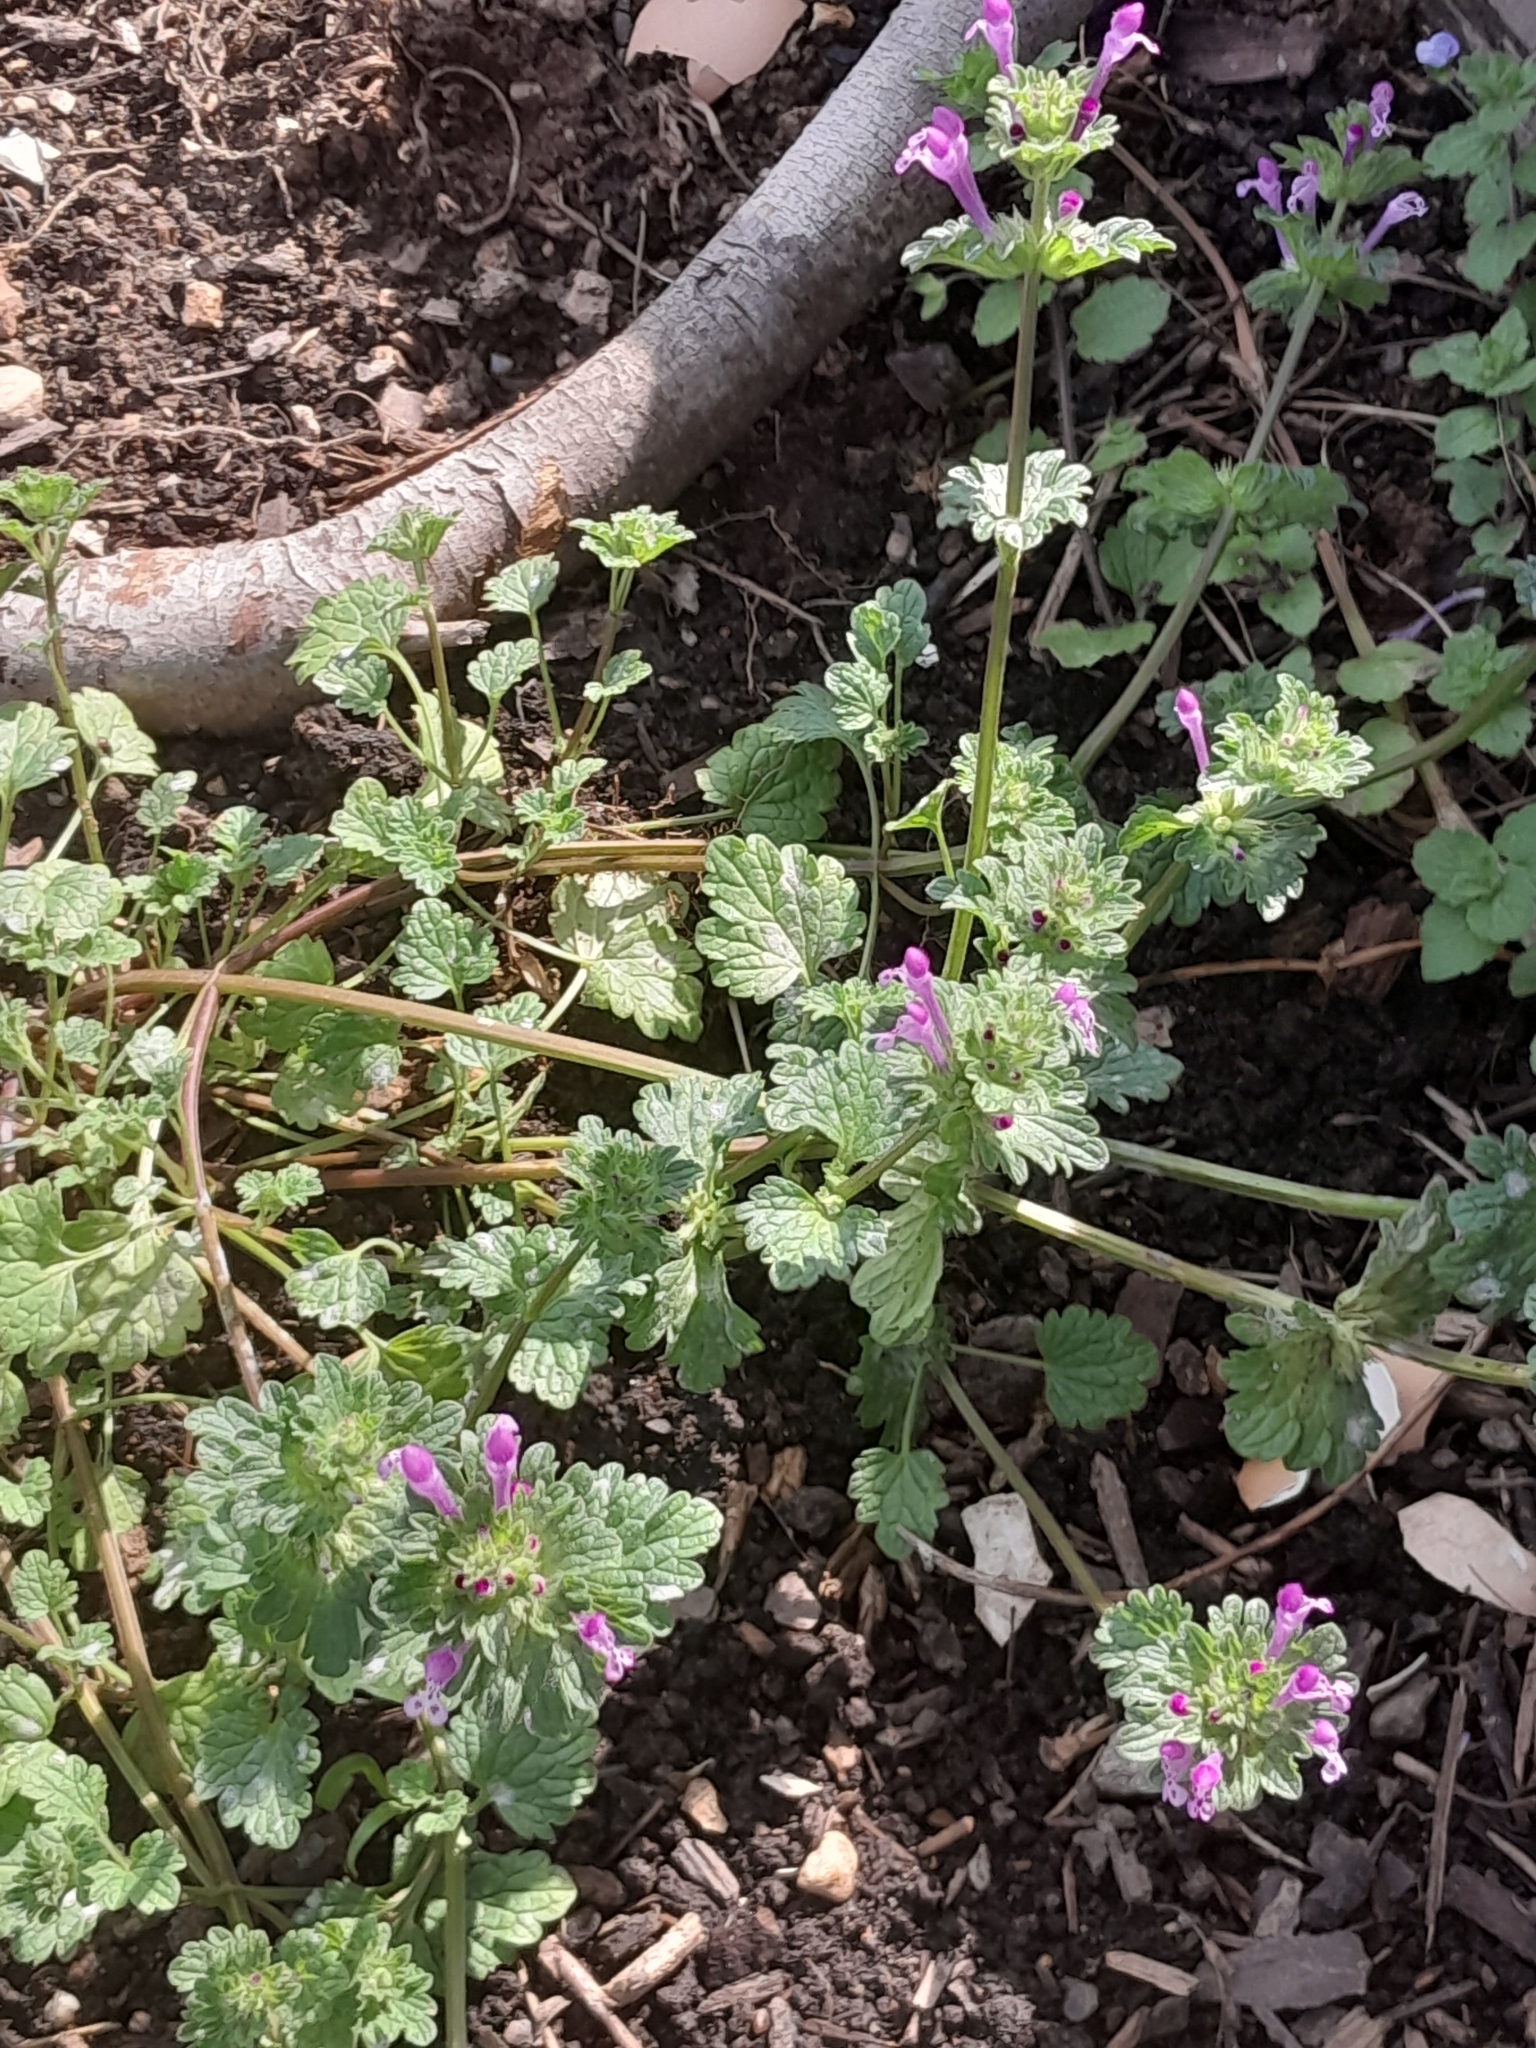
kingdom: Plantae
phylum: Tracheophyta
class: Magnoliopsida
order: Lamiales
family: Lamiaceae
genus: Lamium
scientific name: Lamium amplexicaule
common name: Henbit dead-nettle
